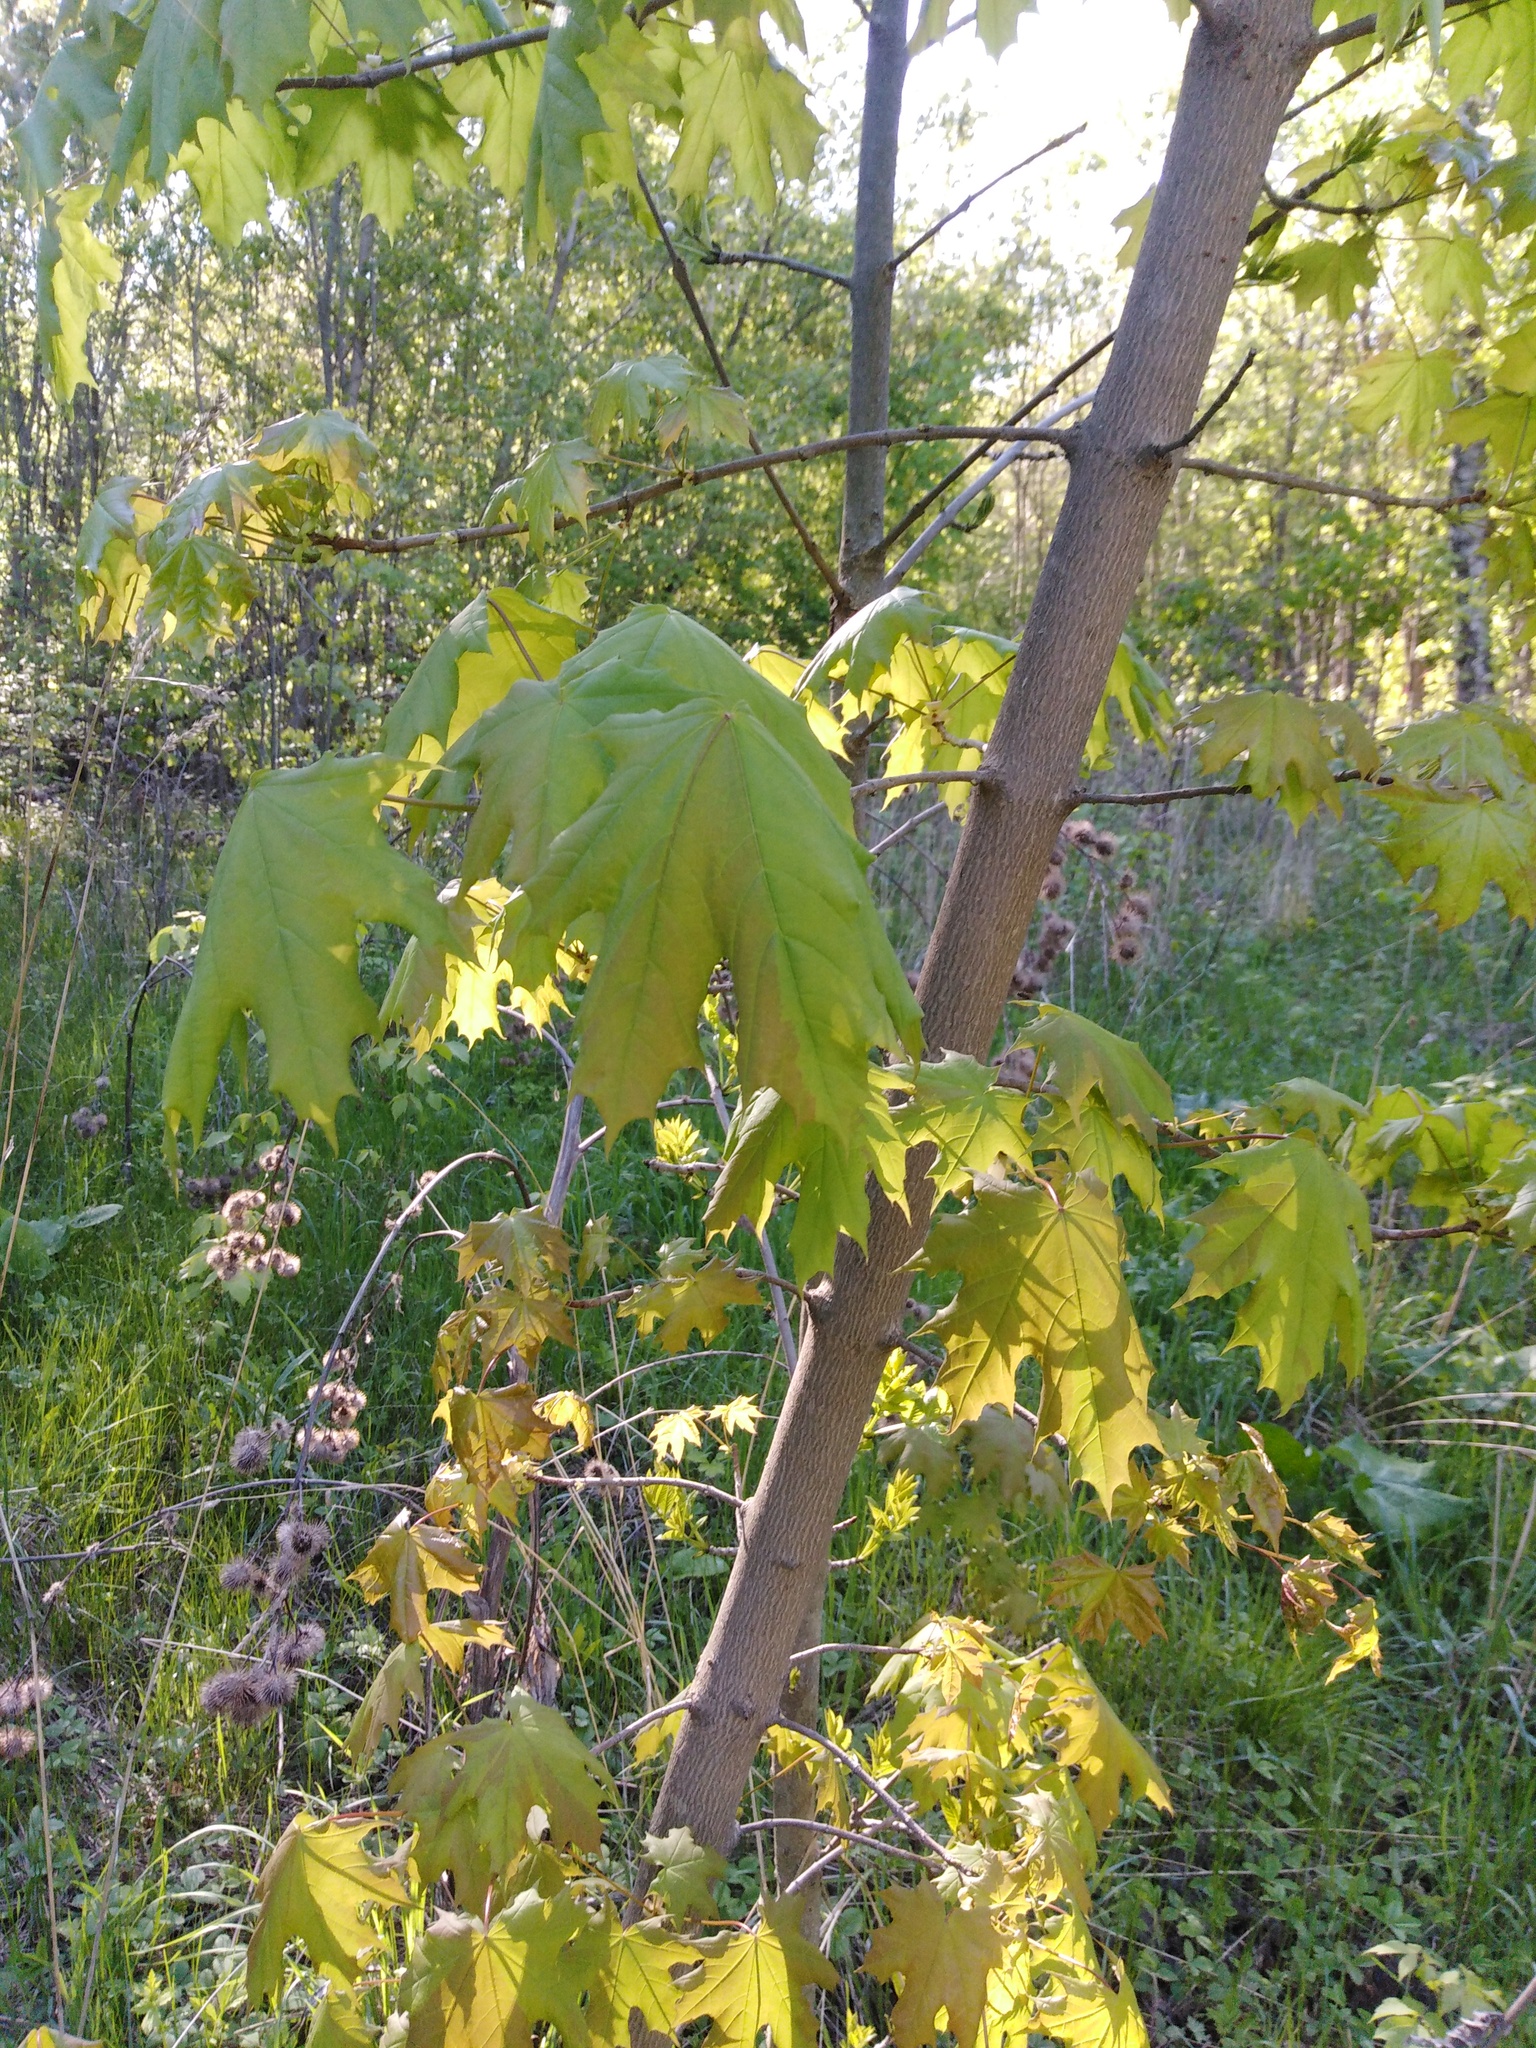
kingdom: Plantae
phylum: Tracheophyta
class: Magnoliopsida
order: Sapindales
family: Sapindaceae
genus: Acer
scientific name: Acer platanoides
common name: Norway maple
